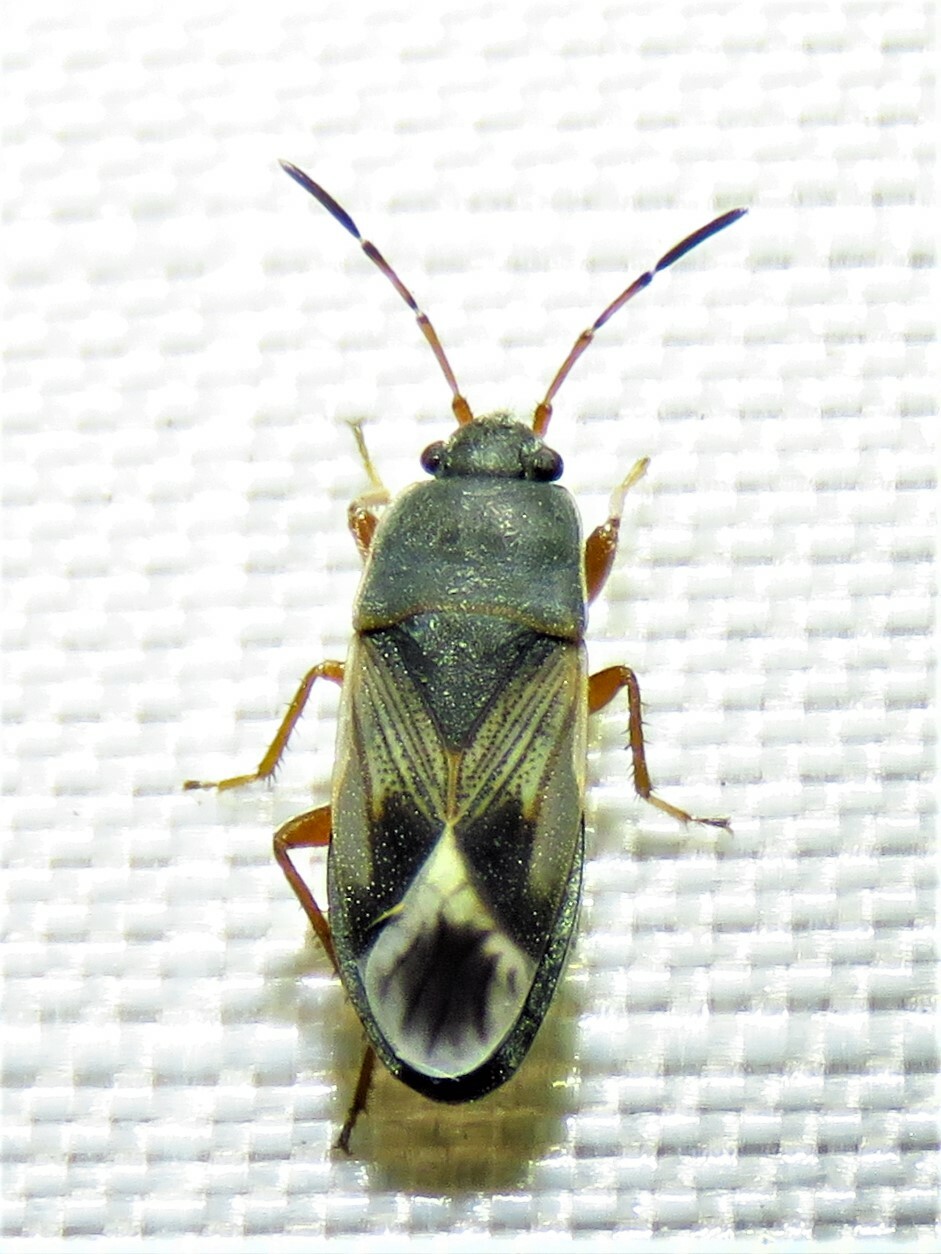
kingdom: Animalia
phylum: Arthropoda
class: Insecta
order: Hemiptera
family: Rhyparochromidae
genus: Malezonotus
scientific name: Malezonotus rufipes
